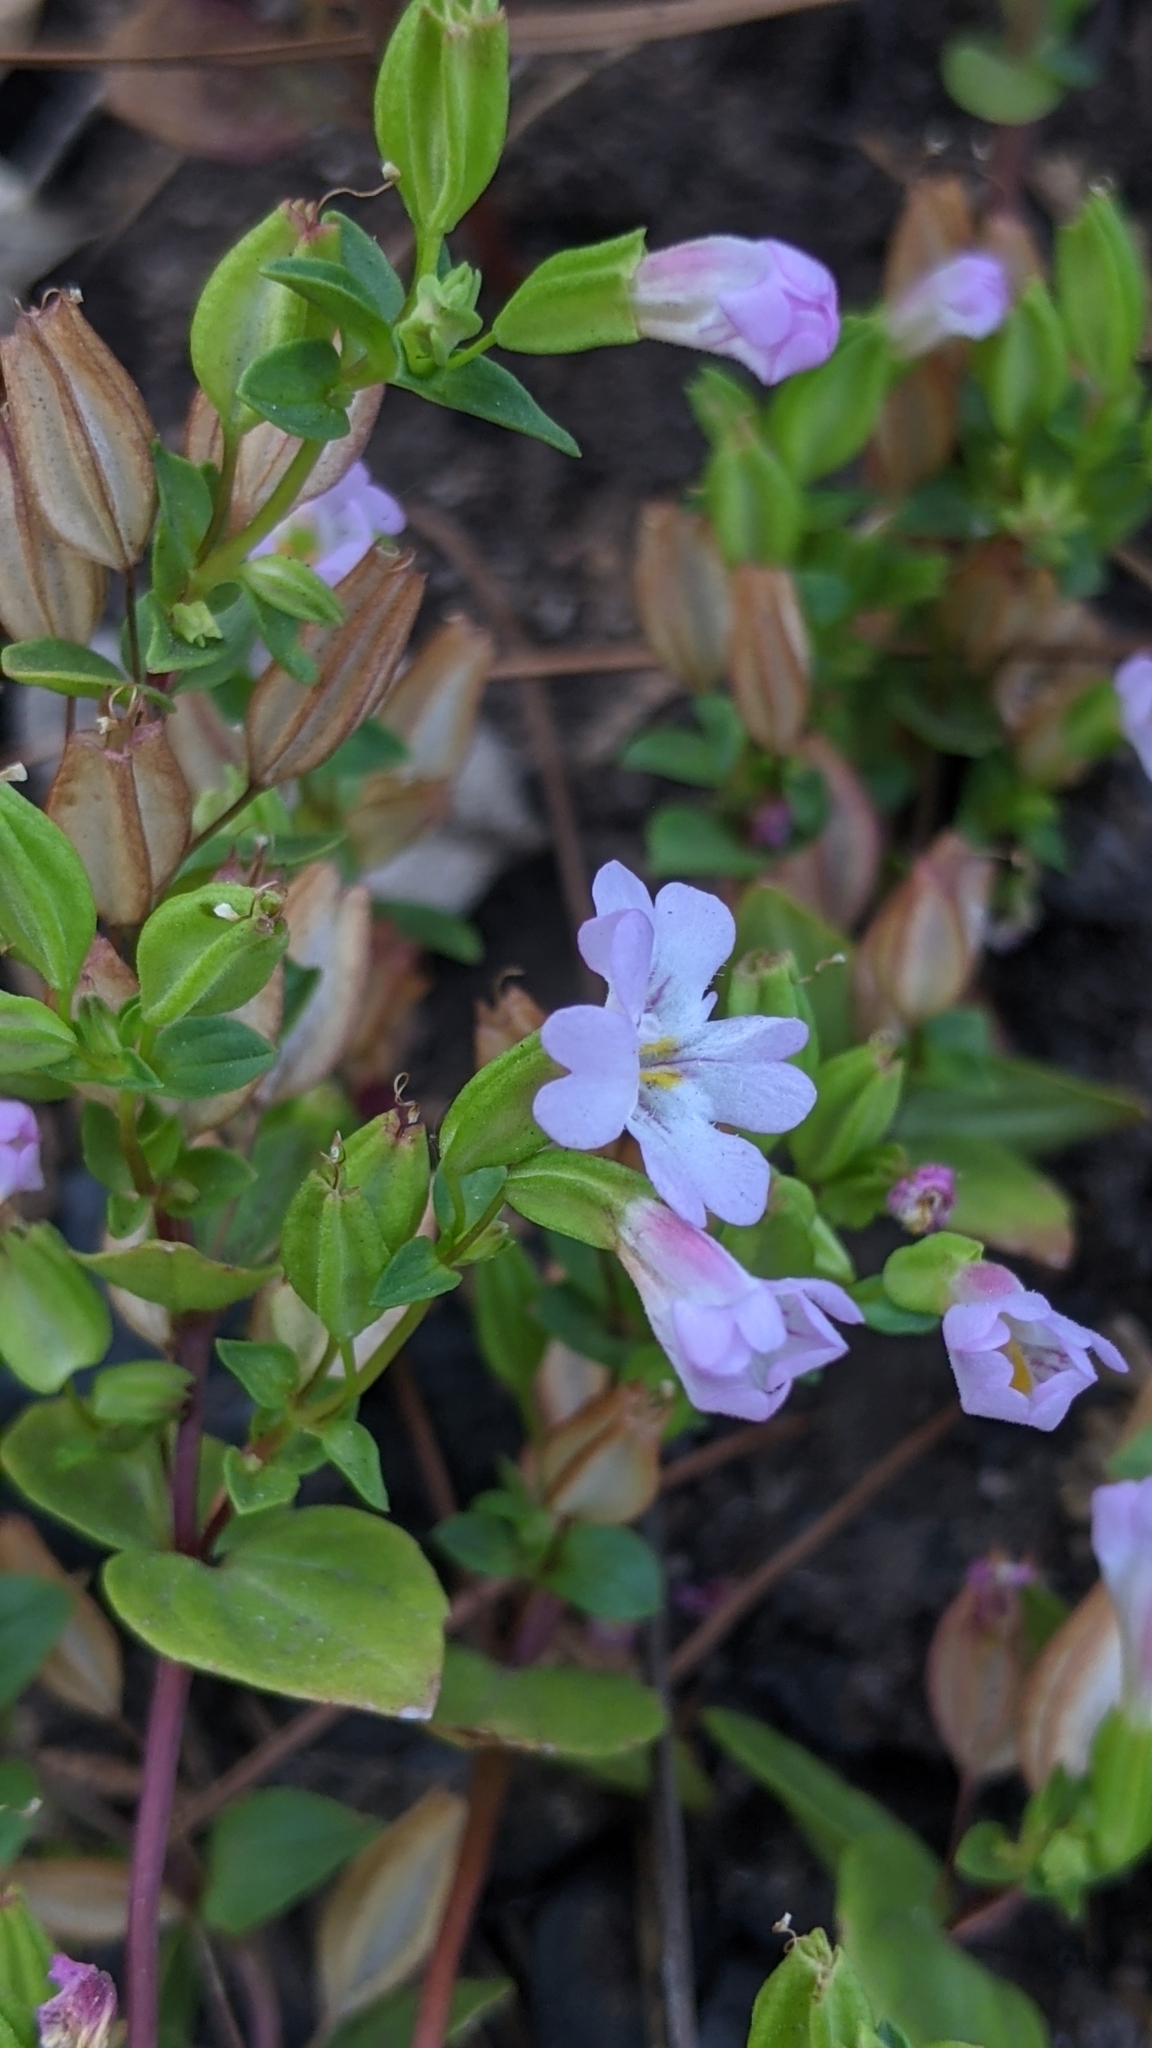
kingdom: Plantae
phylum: Tracheophyta
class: Magnoliopsida
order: Lamiales
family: Phrymaceae
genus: Erythranthe
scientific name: Erythranthe inconspicua
